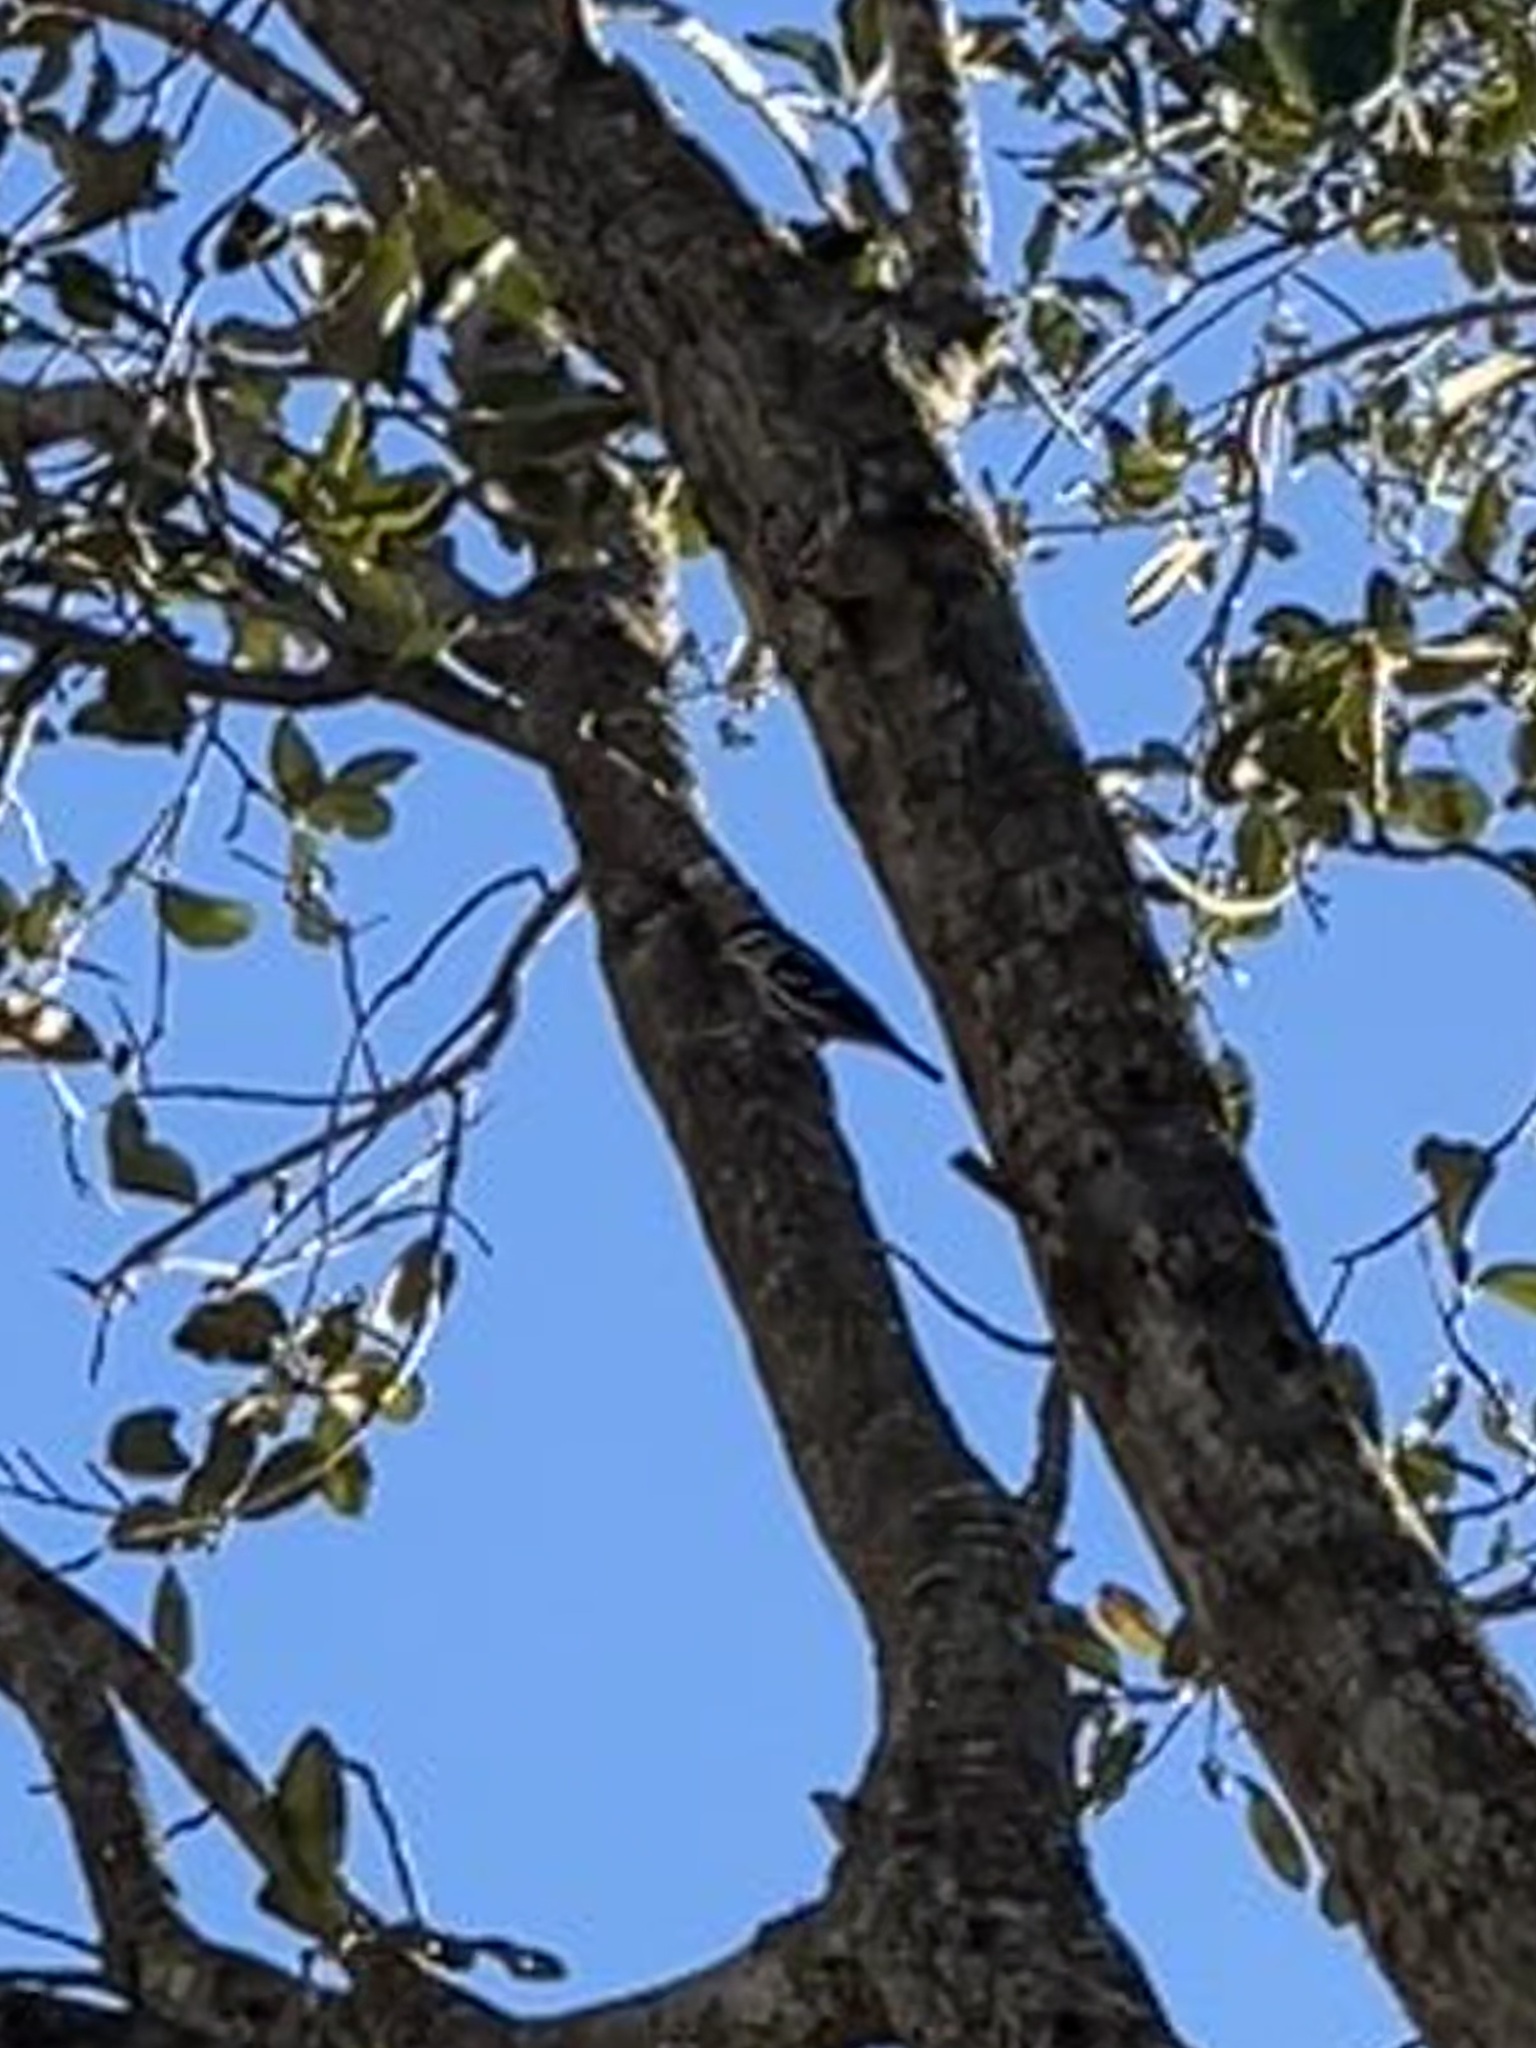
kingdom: Animalia
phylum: Chordata
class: Aves
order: Passeriformes
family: Parulidae
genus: Mniotilta
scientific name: Mniotilta varia
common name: Black-and-white warbler
